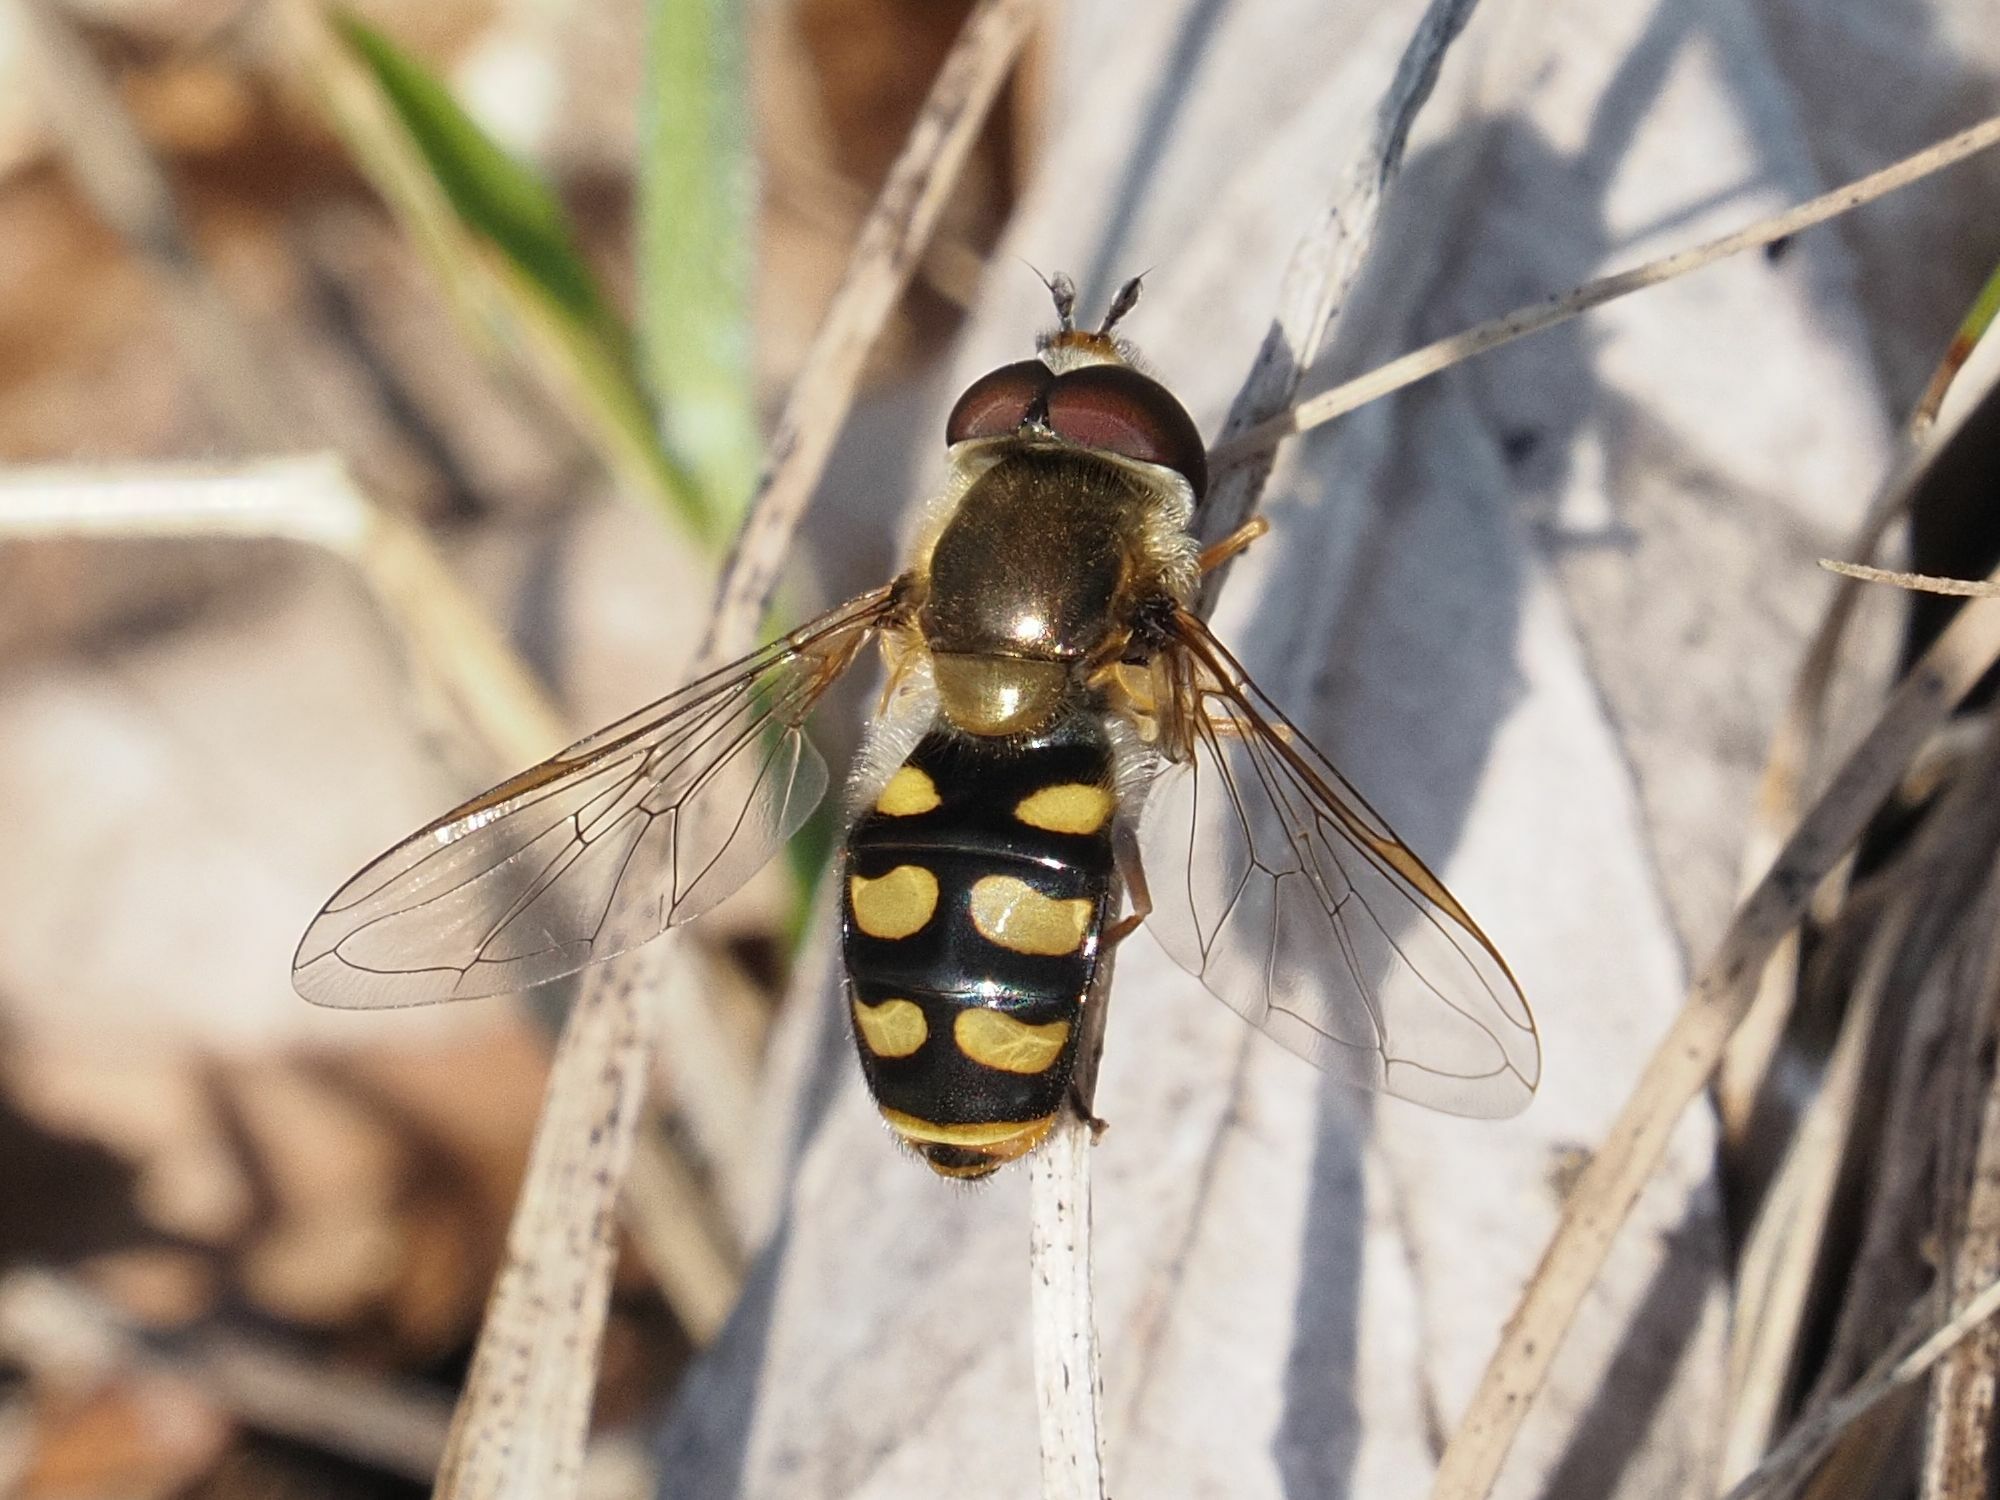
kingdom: Animalia
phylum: Arthropoda
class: Insecta
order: Diptera
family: Syrphidae
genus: Eupeodes
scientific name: Eupeodes luniger
